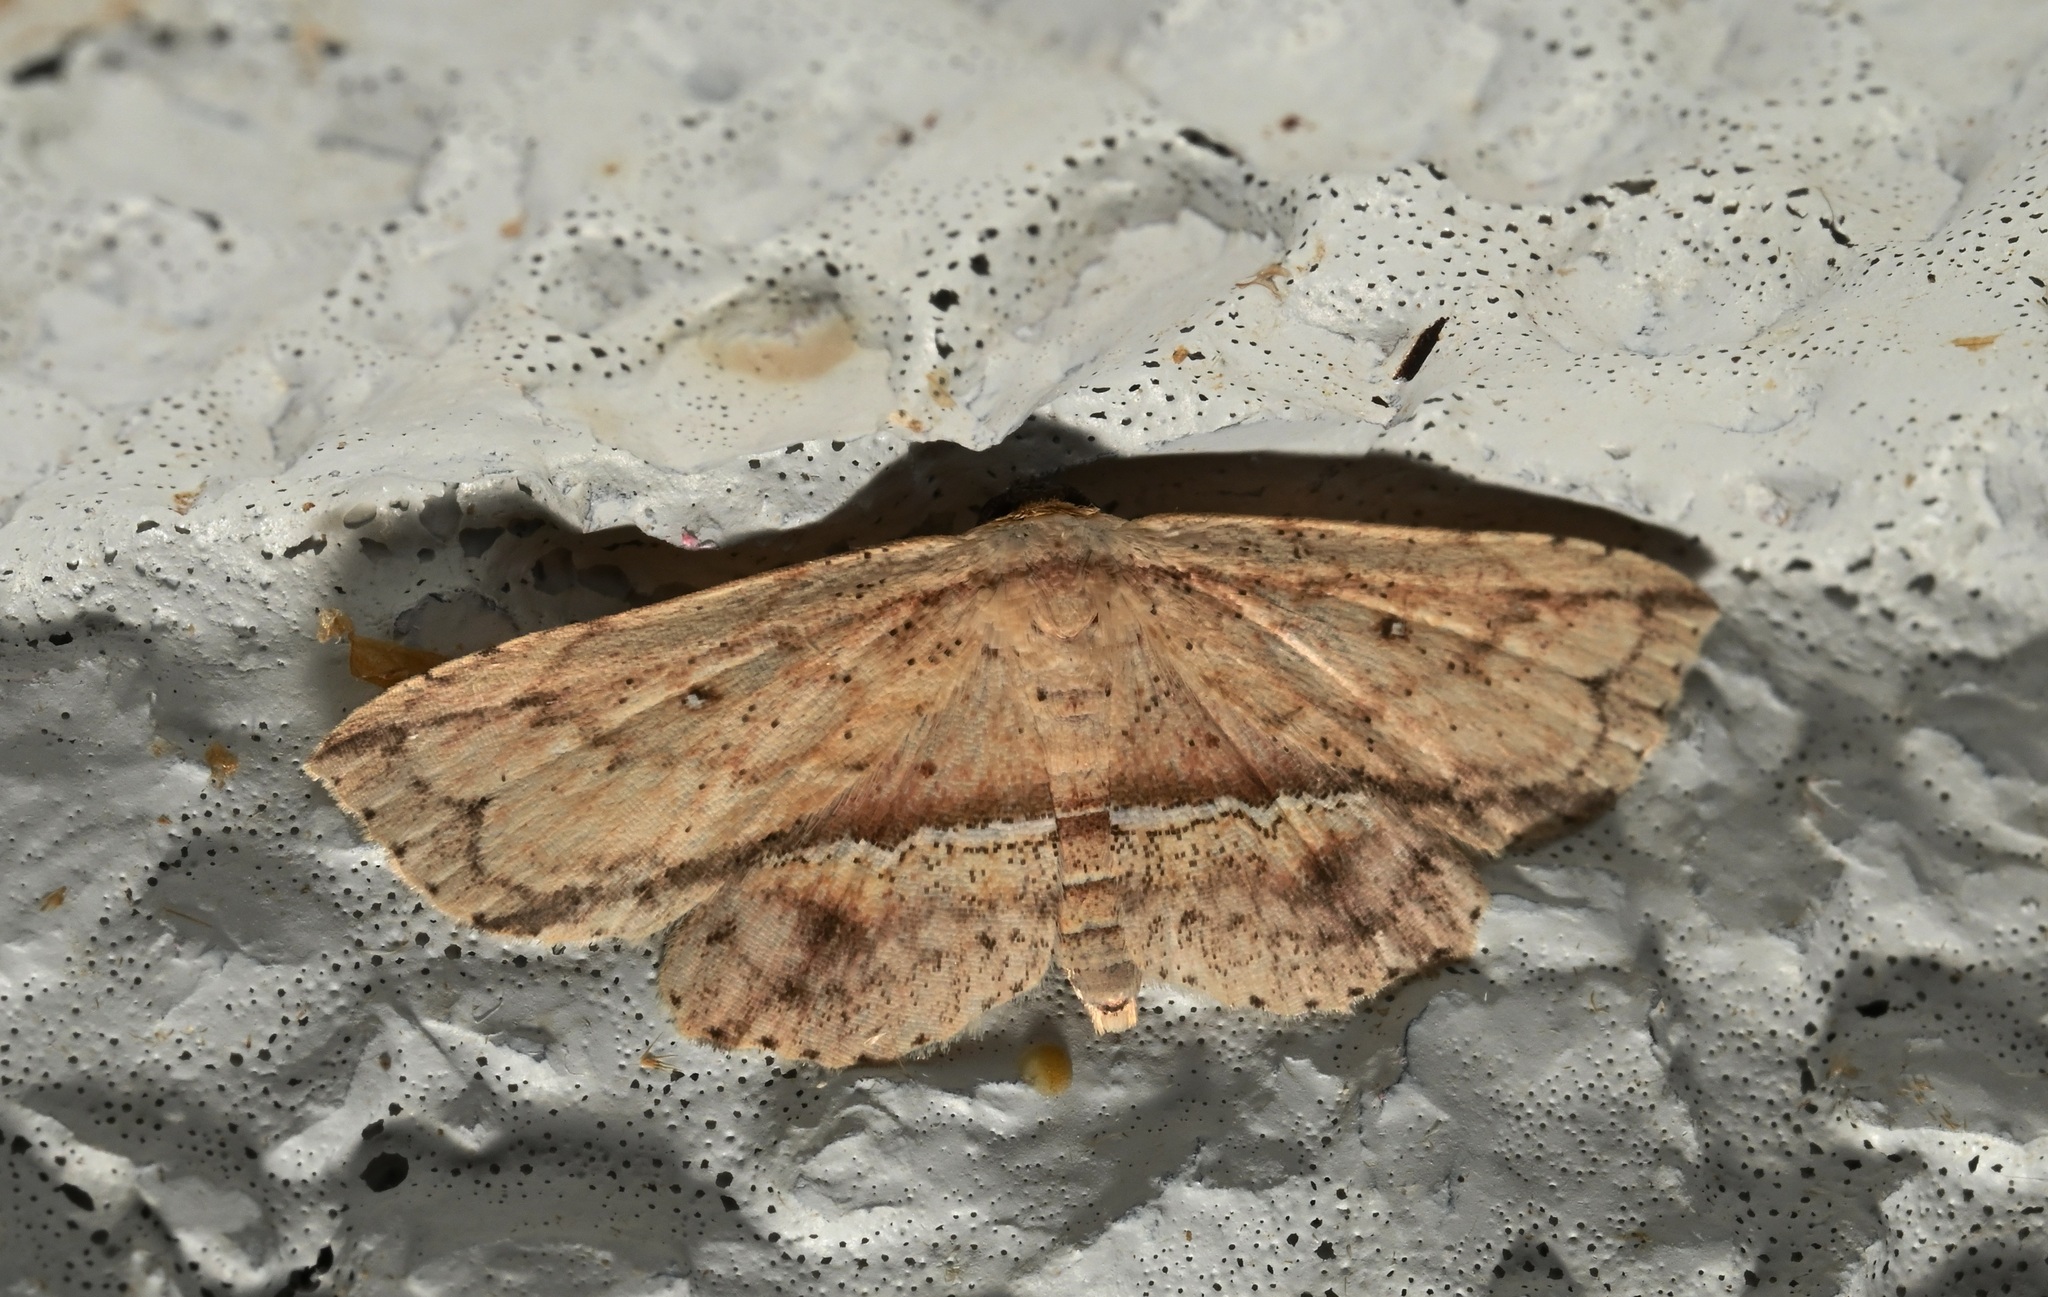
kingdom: Animalia
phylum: Arthropoda
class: Insecta
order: Lepidoptera
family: Noctuidae
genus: Hyposada
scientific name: Hyposada postalbata
